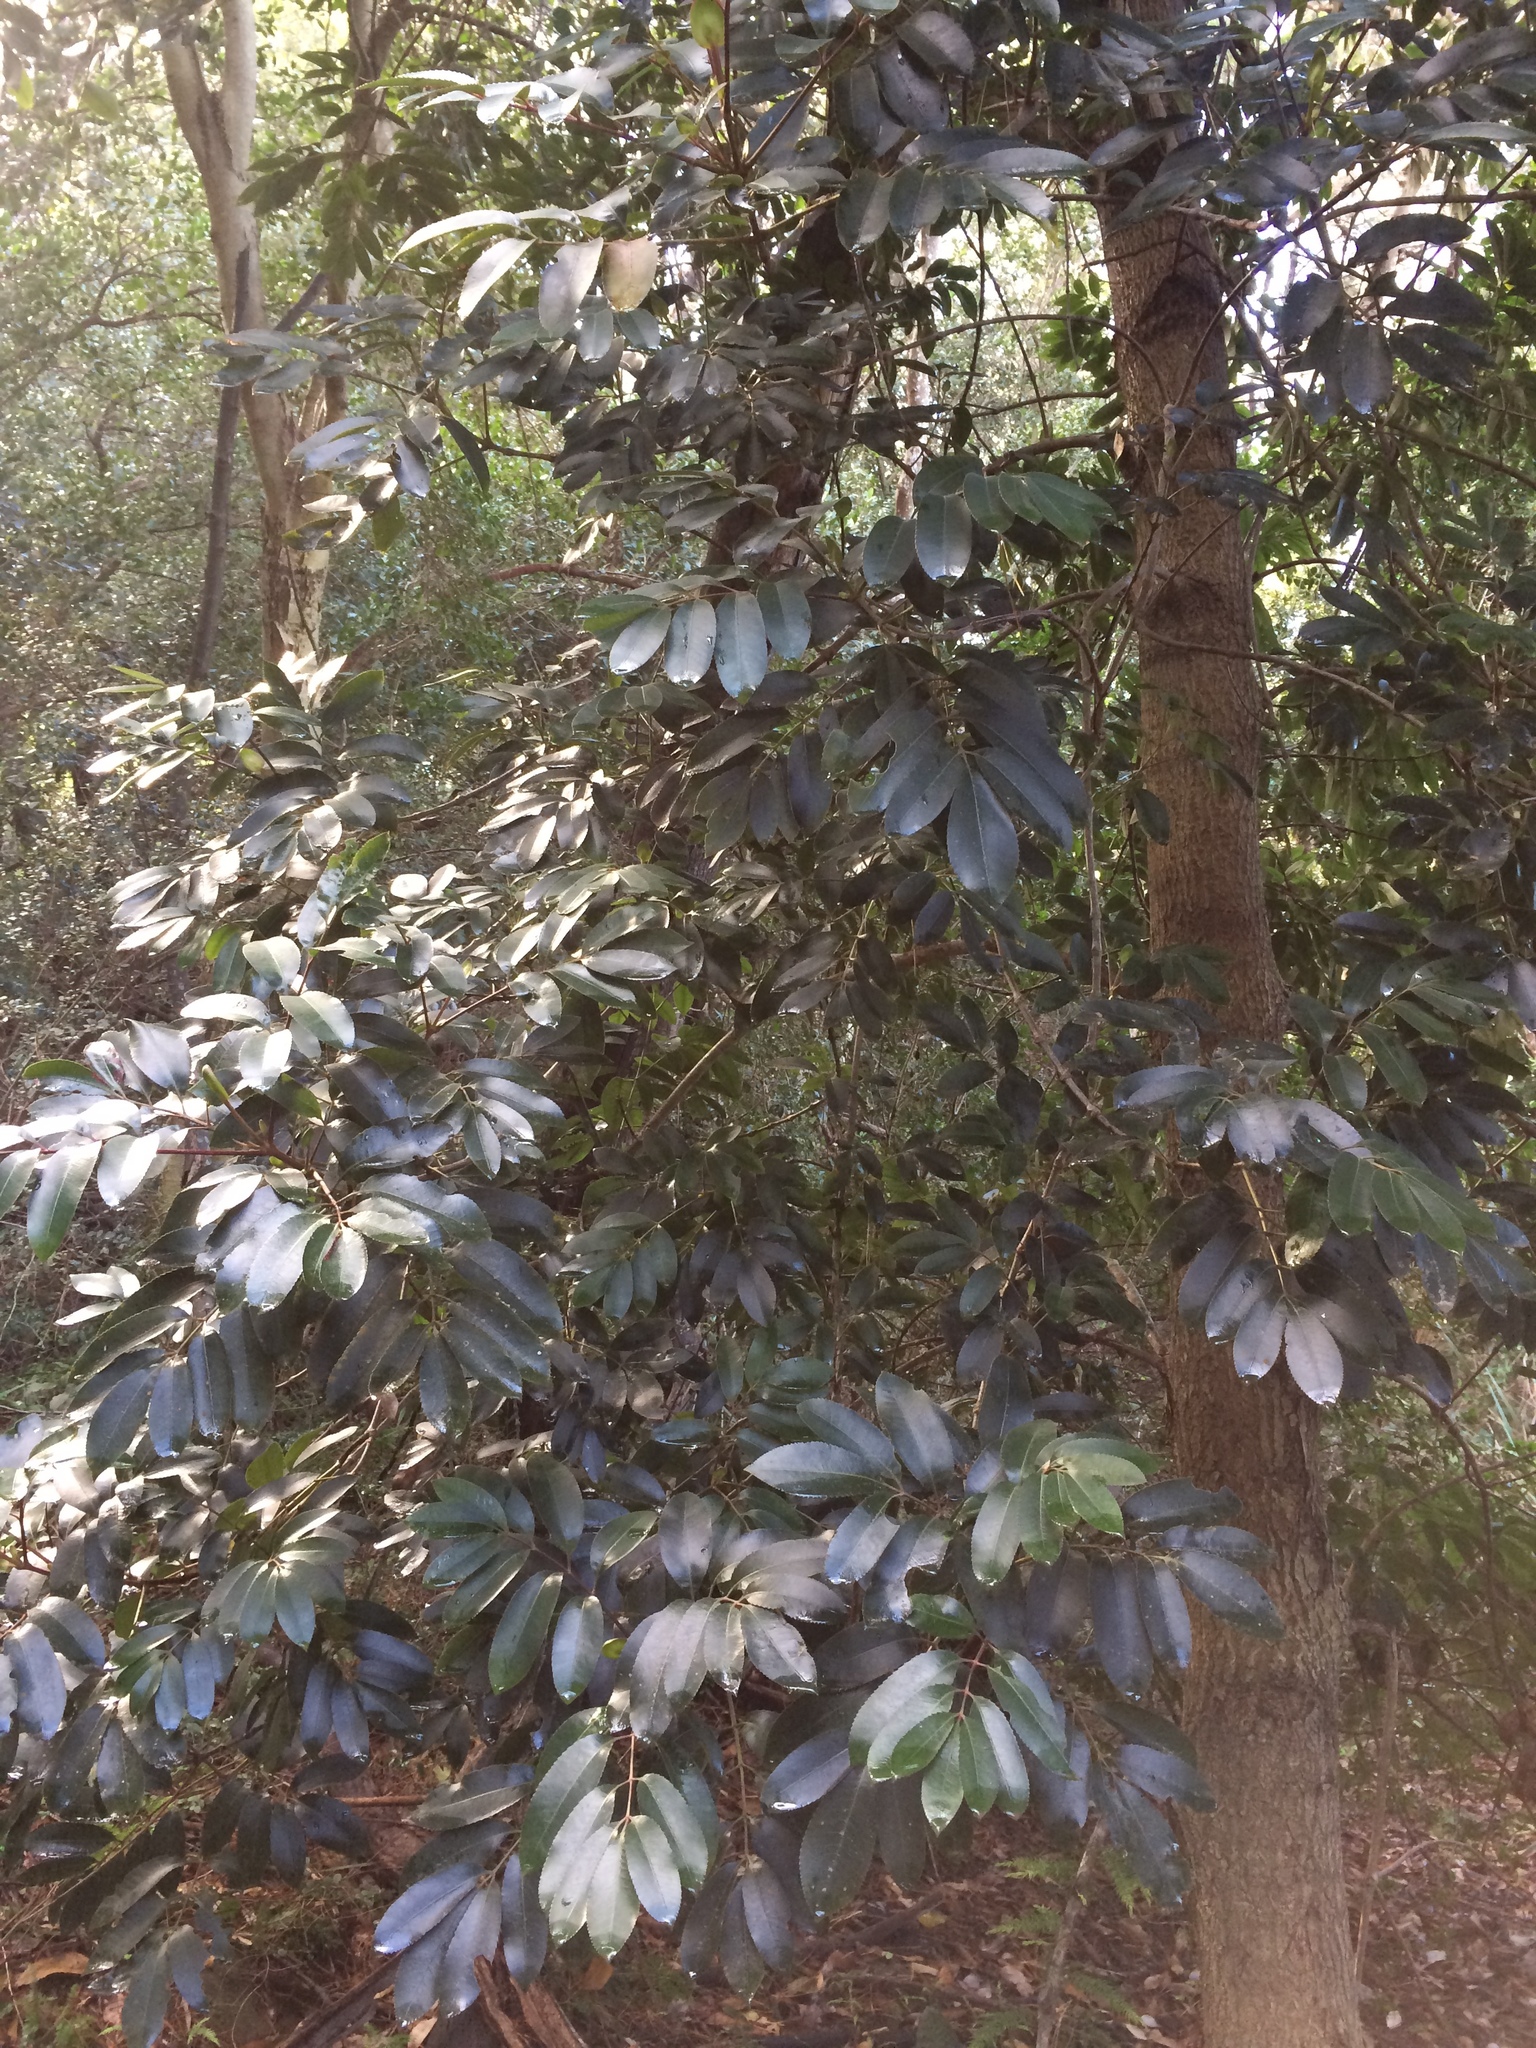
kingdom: Plantae
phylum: Tracheophyta
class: Magnoliopsida
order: Oxalidales
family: Cunoniaceae
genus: Cunonia
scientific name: Cunonia capensis
